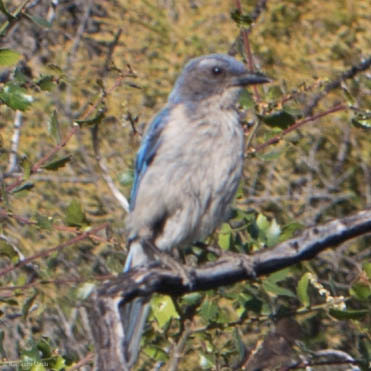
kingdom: Animalia
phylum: Chordata
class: Aves
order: Passeriformes
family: Corvidae
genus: Aphelocoma
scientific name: Aphelocoma californica
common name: California scrub-jay
